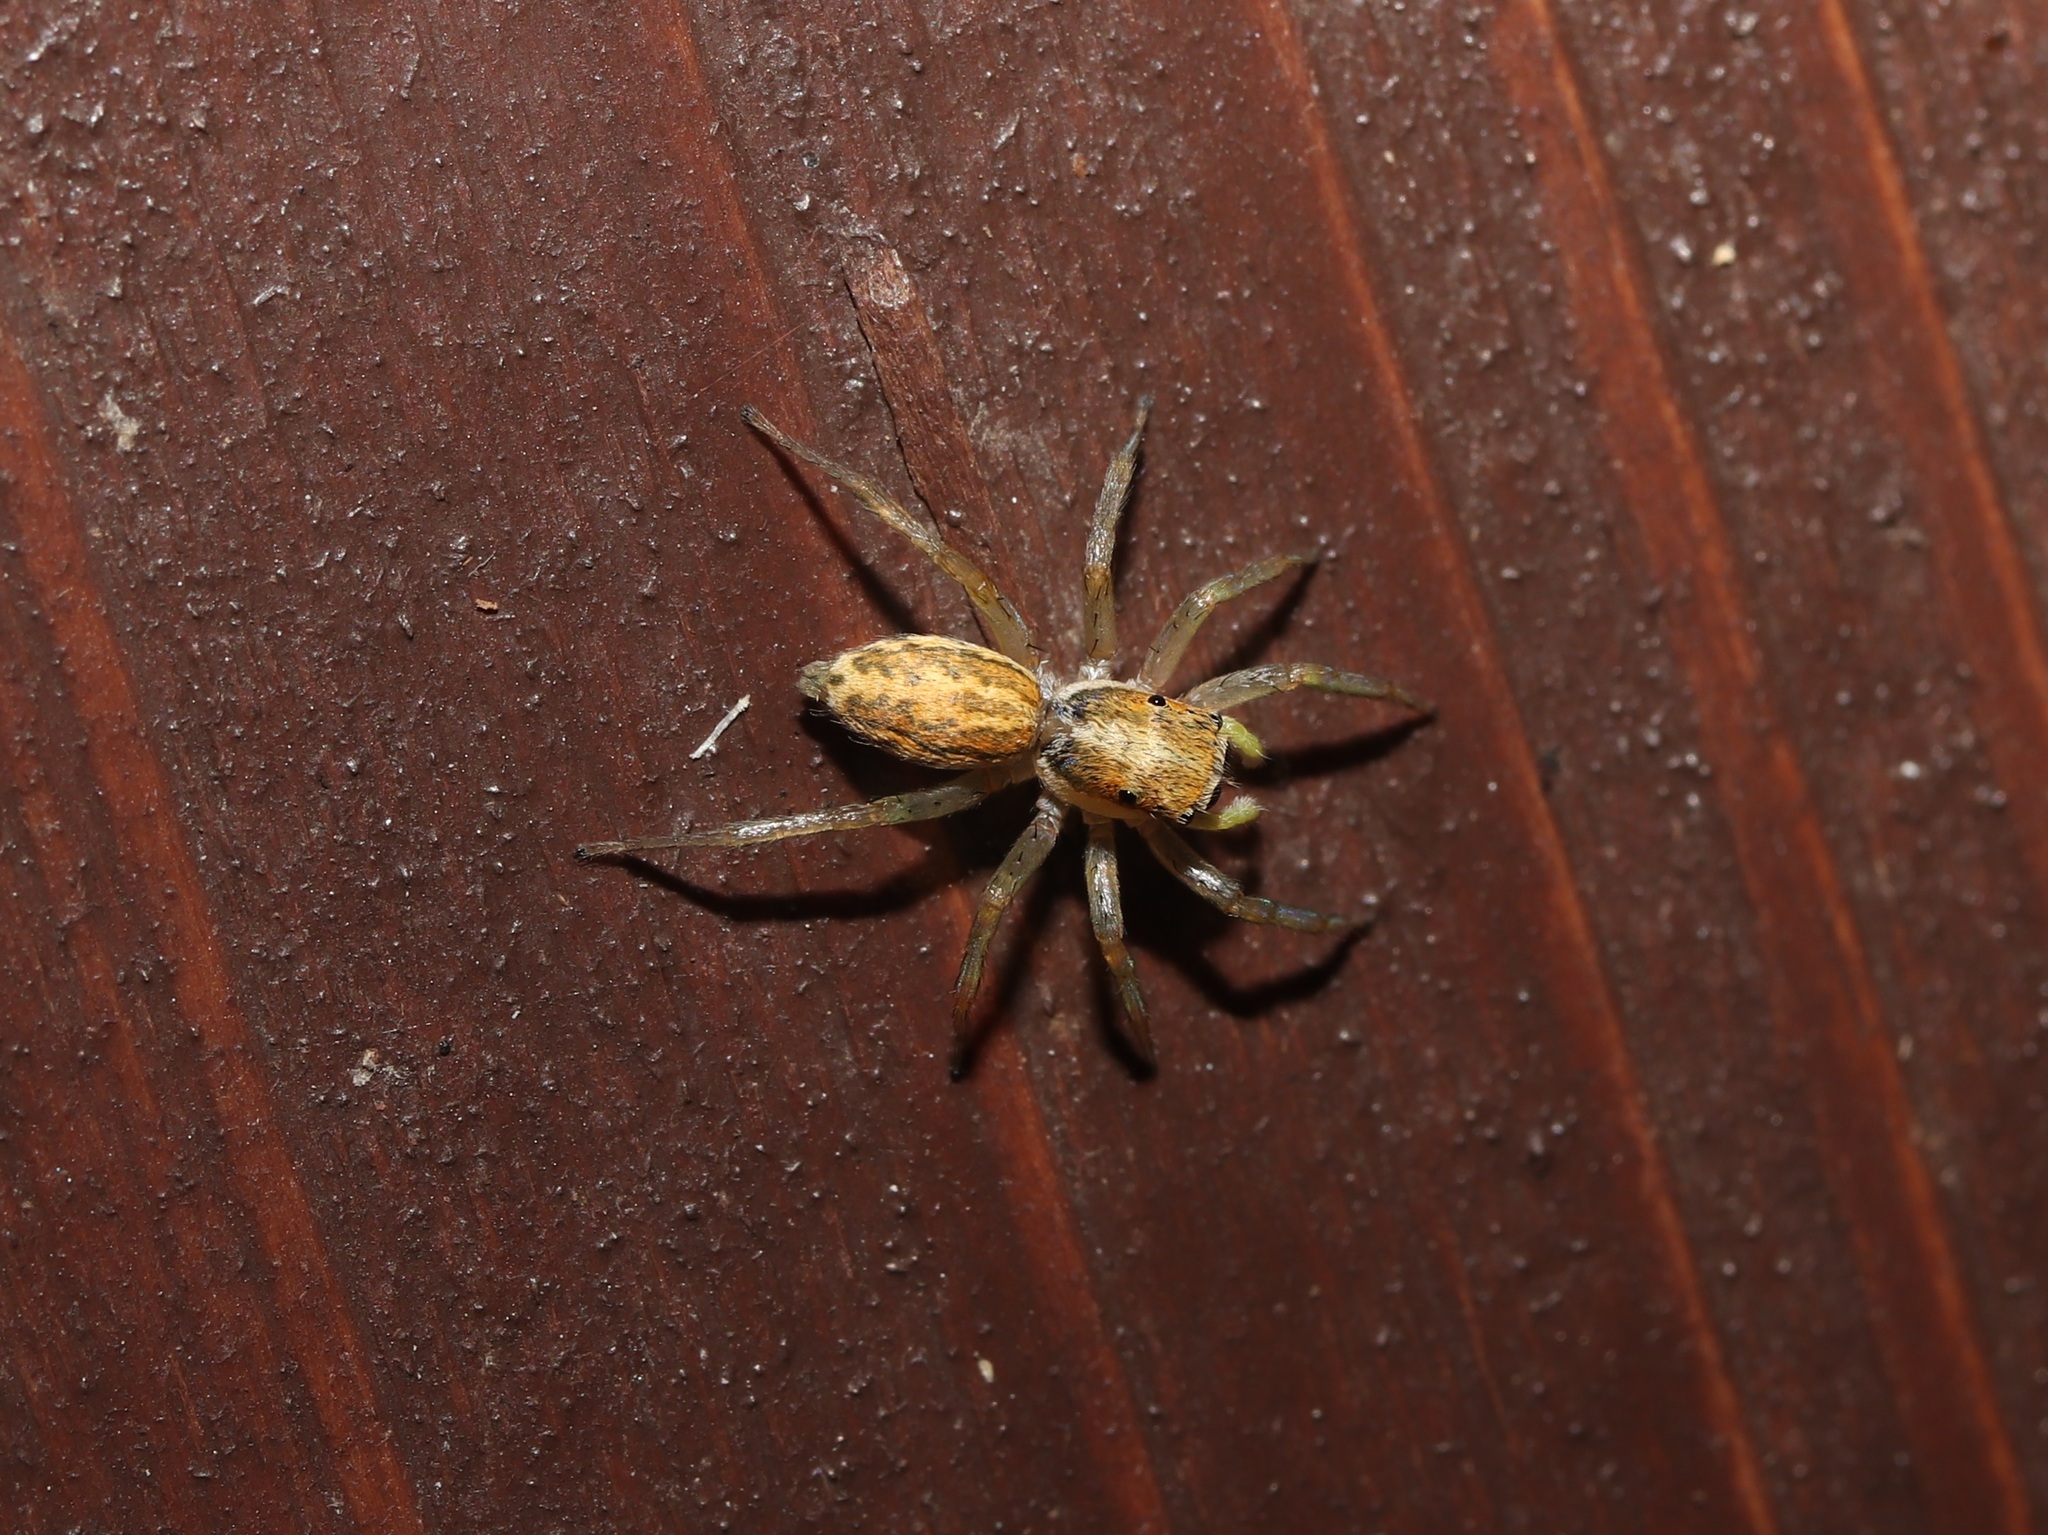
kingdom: Animalia
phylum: Arthropoda
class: Arachnida
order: Araneae
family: Salticidae
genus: Phintella
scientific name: Phintella abnormis
